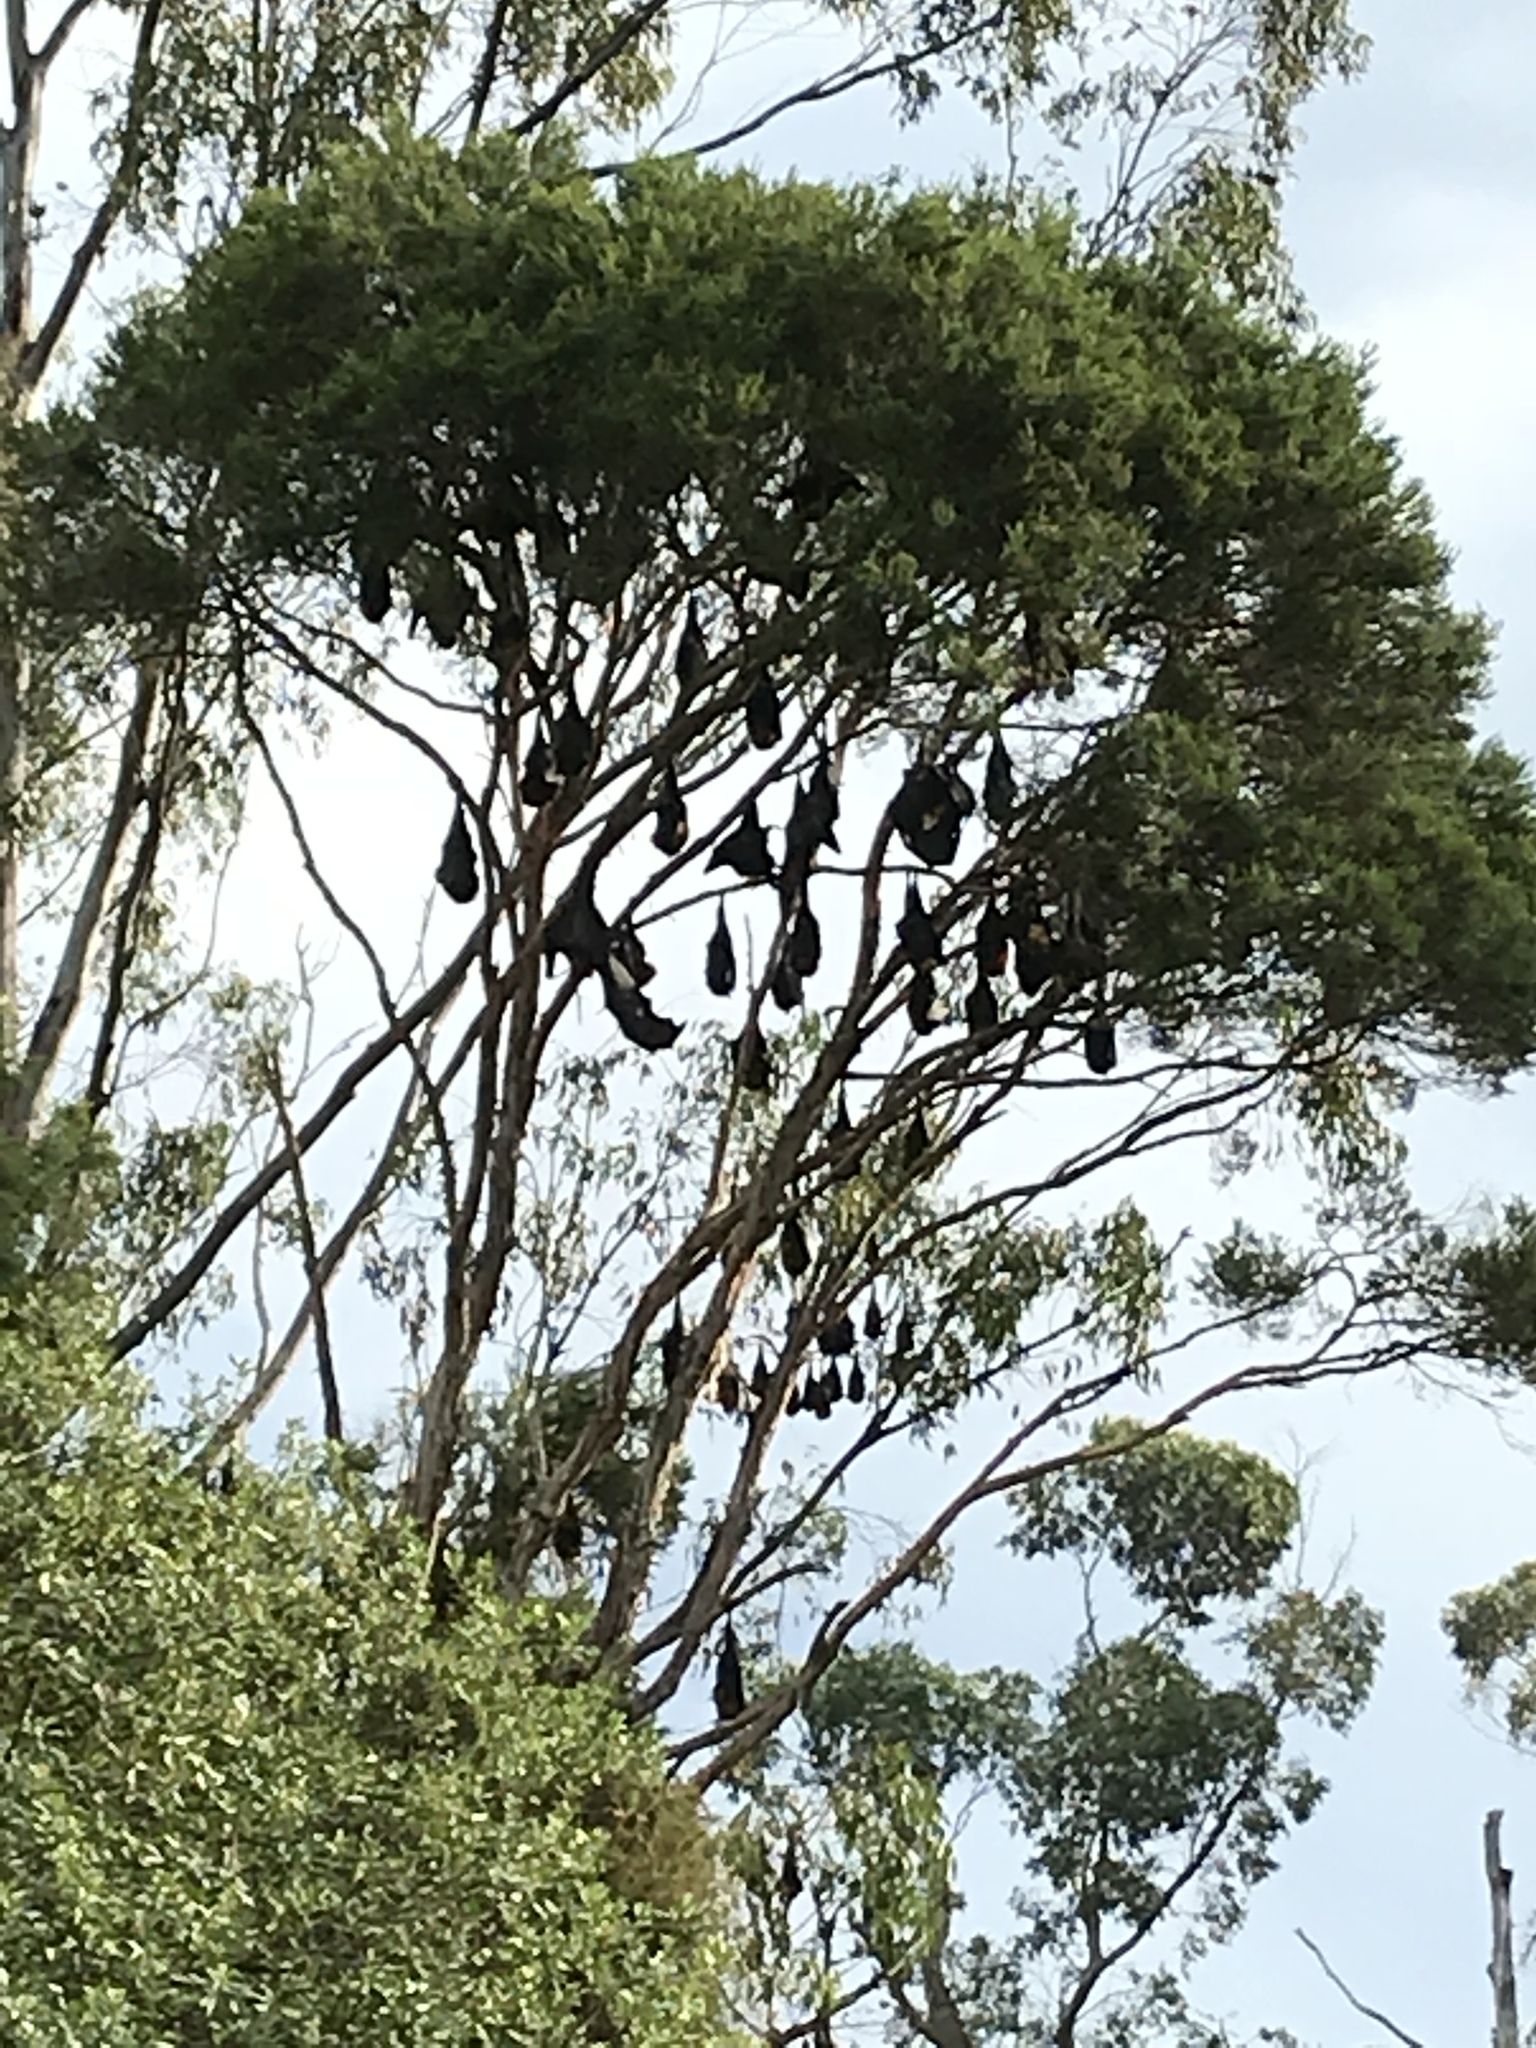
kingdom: Animalia
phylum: Chordata
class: Mammalia
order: Chiroptera
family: Pteropodidae
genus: Pteropus
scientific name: Pteropus poliocephalus
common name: Gray-headed flying fox
